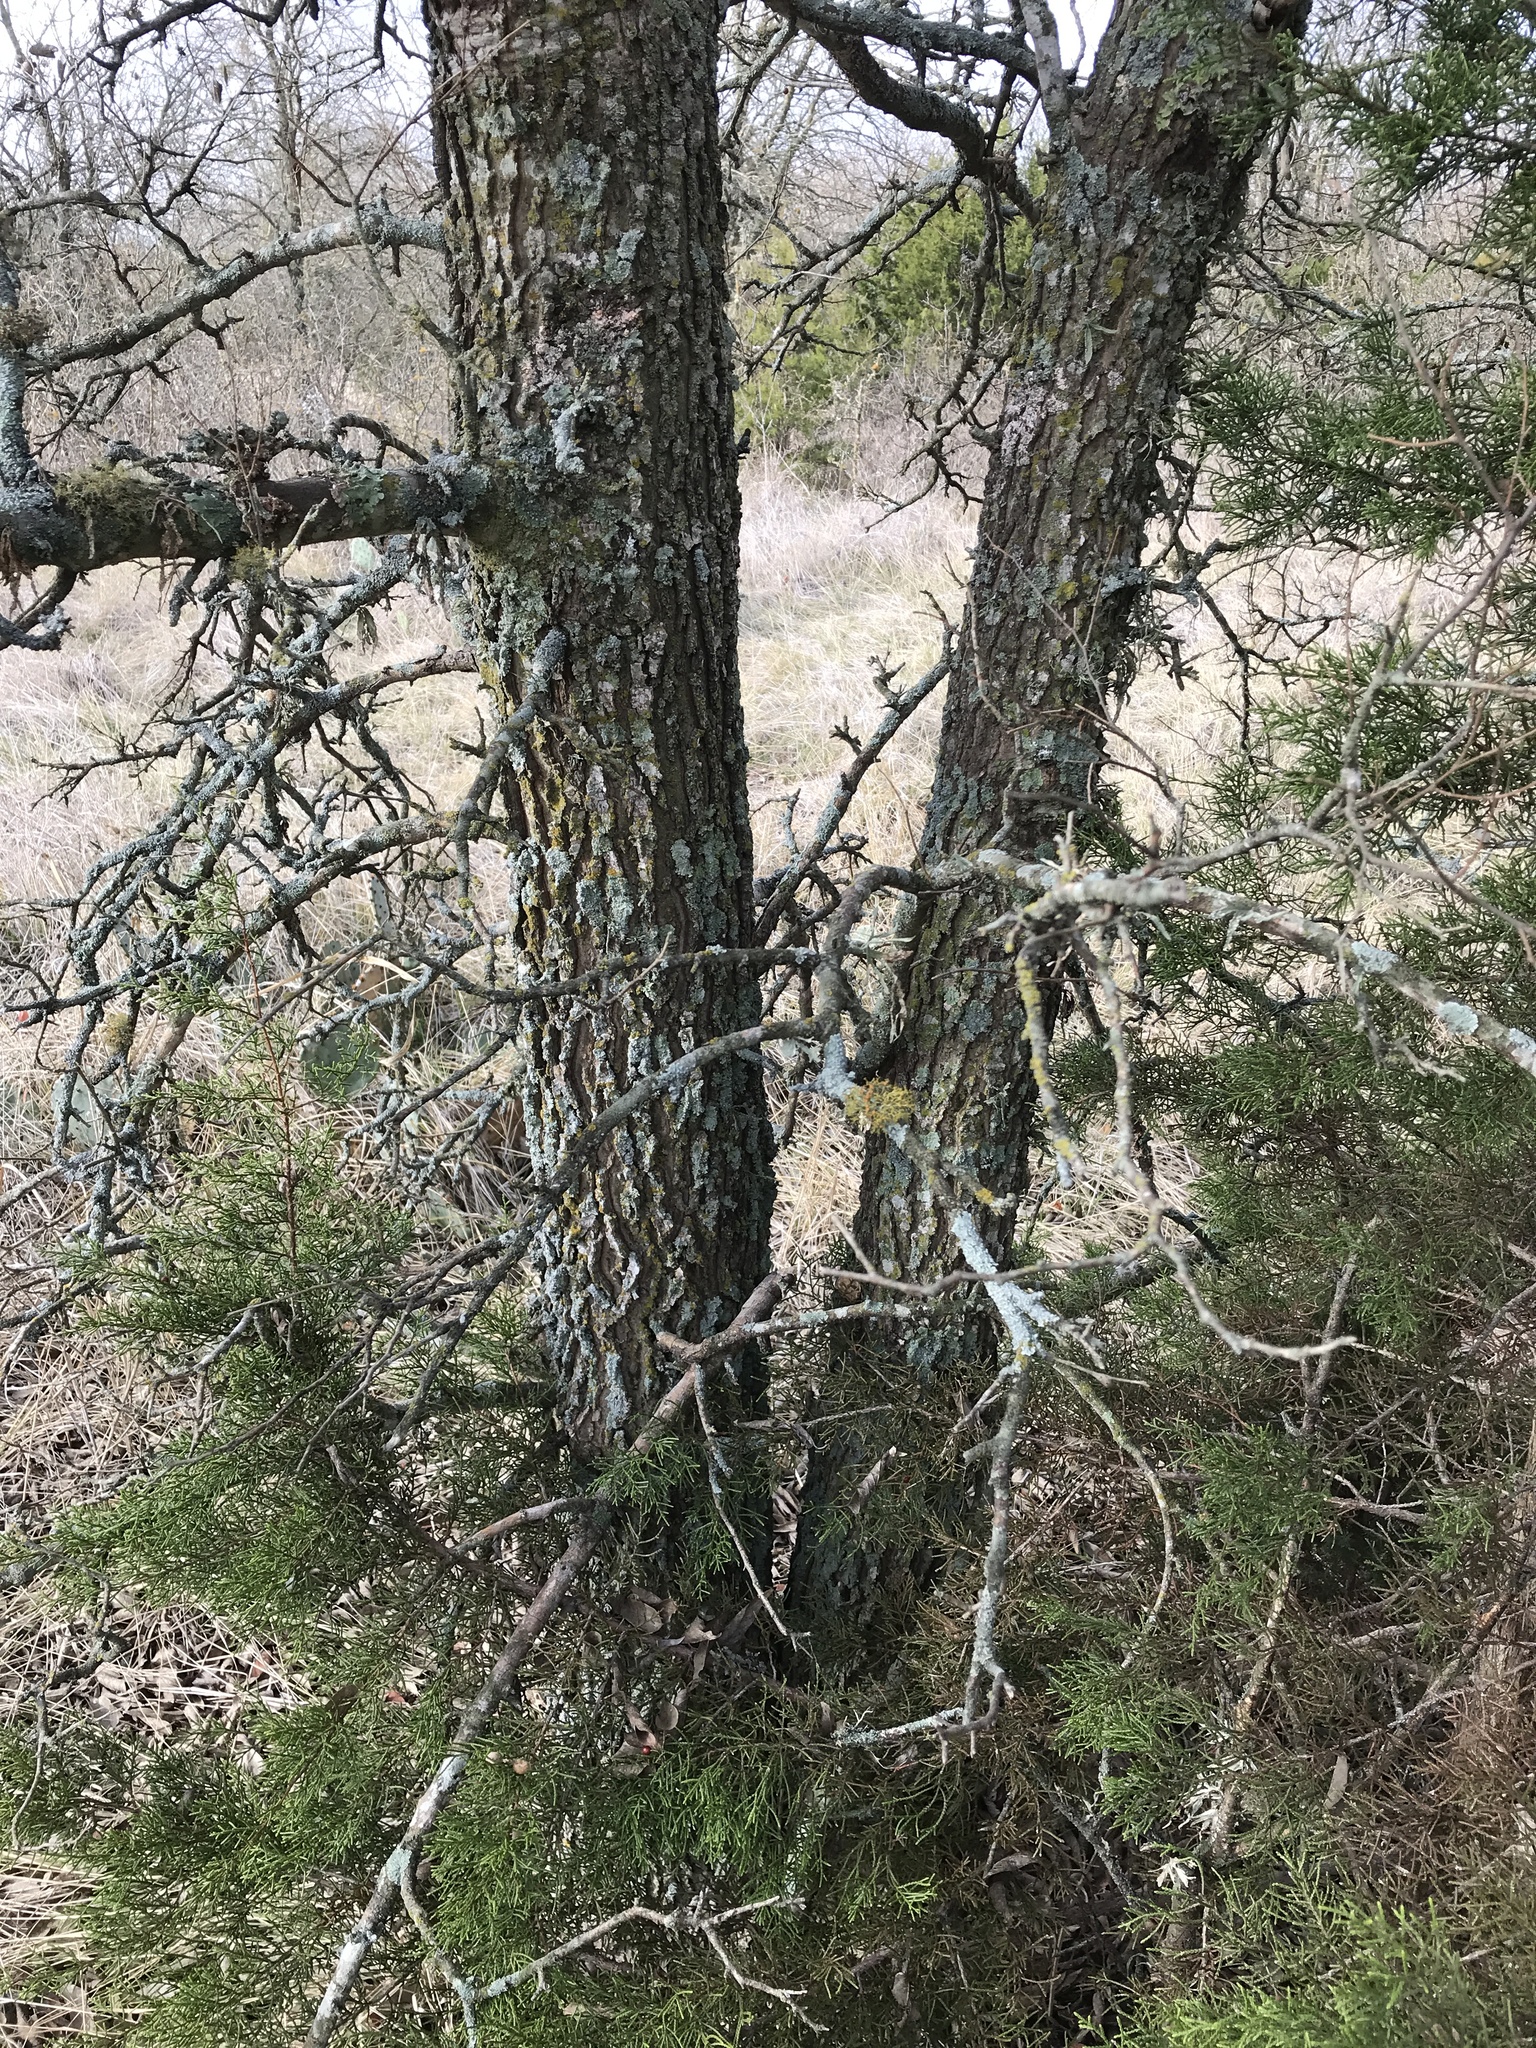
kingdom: Plantae
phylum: Tracheophyta
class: Magnoliopsida
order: Rosales
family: Cannabaceae
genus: Celtis
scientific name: Celtis laevigata
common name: Sugarberry
